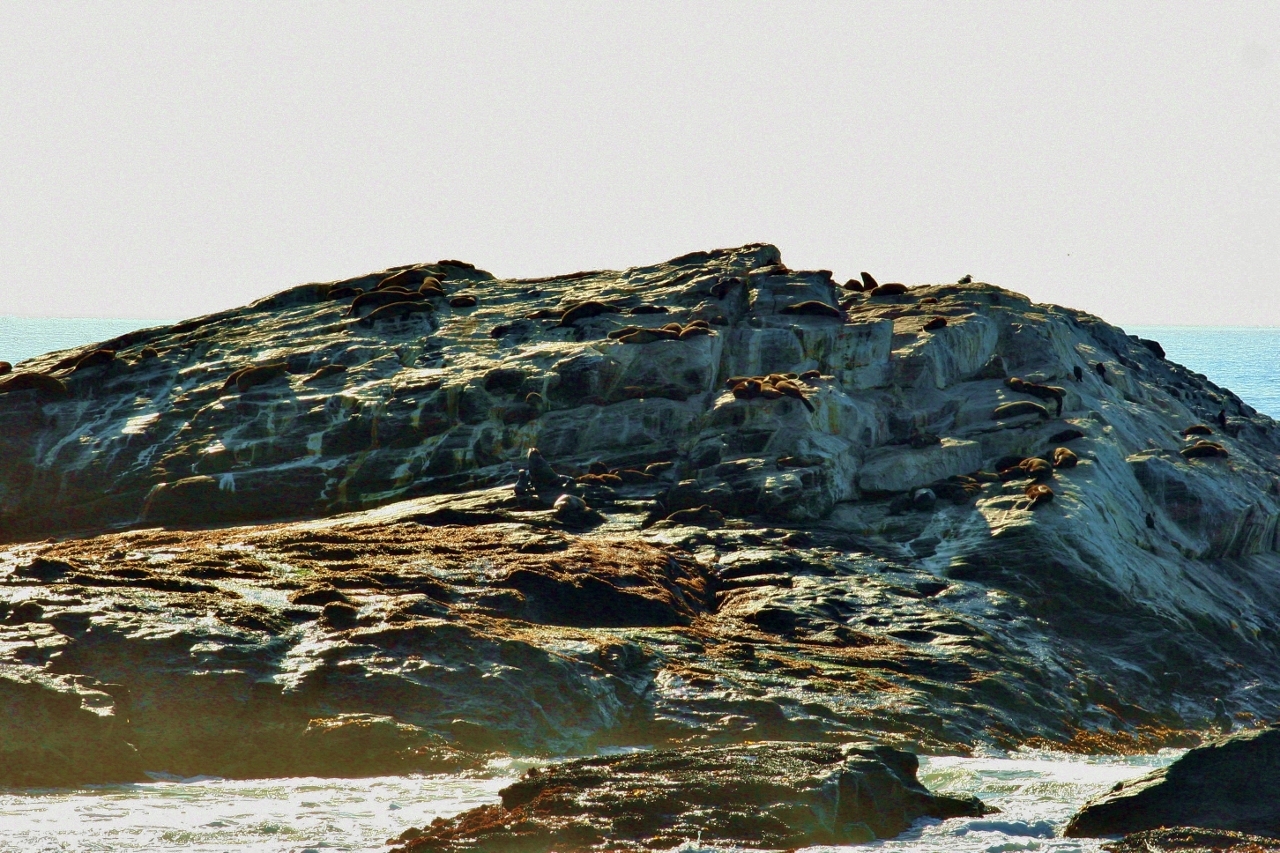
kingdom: Animalia
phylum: Chordata
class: Mammalia
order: Carnivora
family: Otariidae
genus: Arctocephalus
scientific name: Arctocephalus pusillus
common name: Brown fur seal
